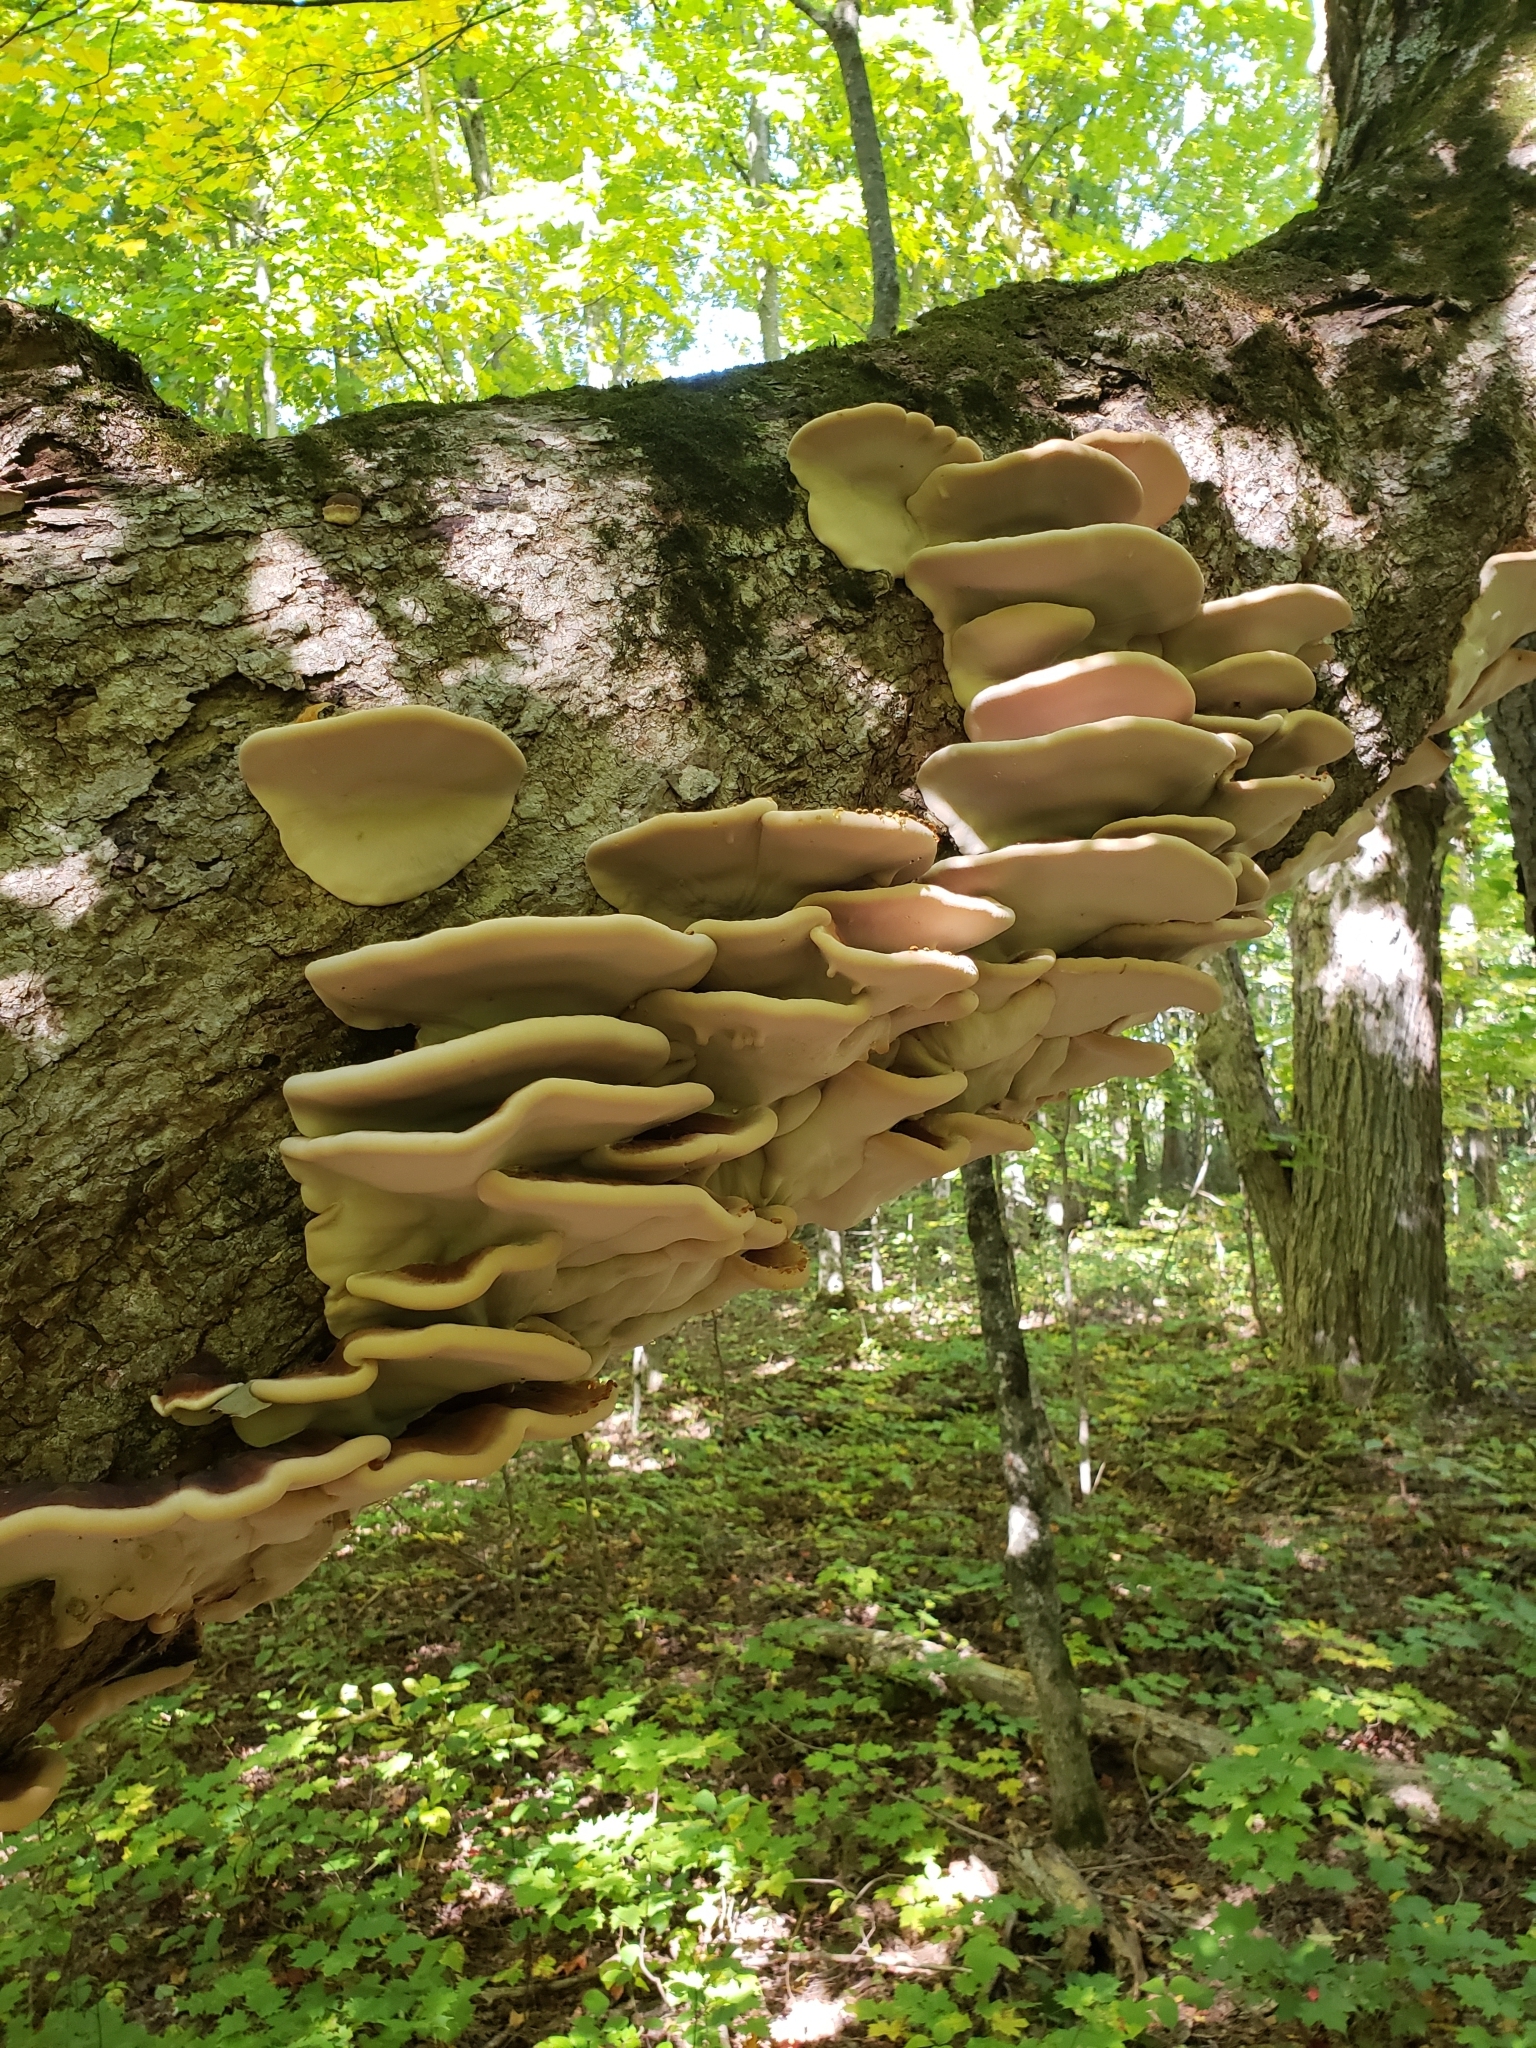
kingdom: Fungi
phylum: Basidiomycota
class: Agaricomycetes
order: Polyporales
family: Ischnodermataceae
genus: Ischnoderma
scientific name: Ischnoderma resinosum
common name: Resinous polypore
